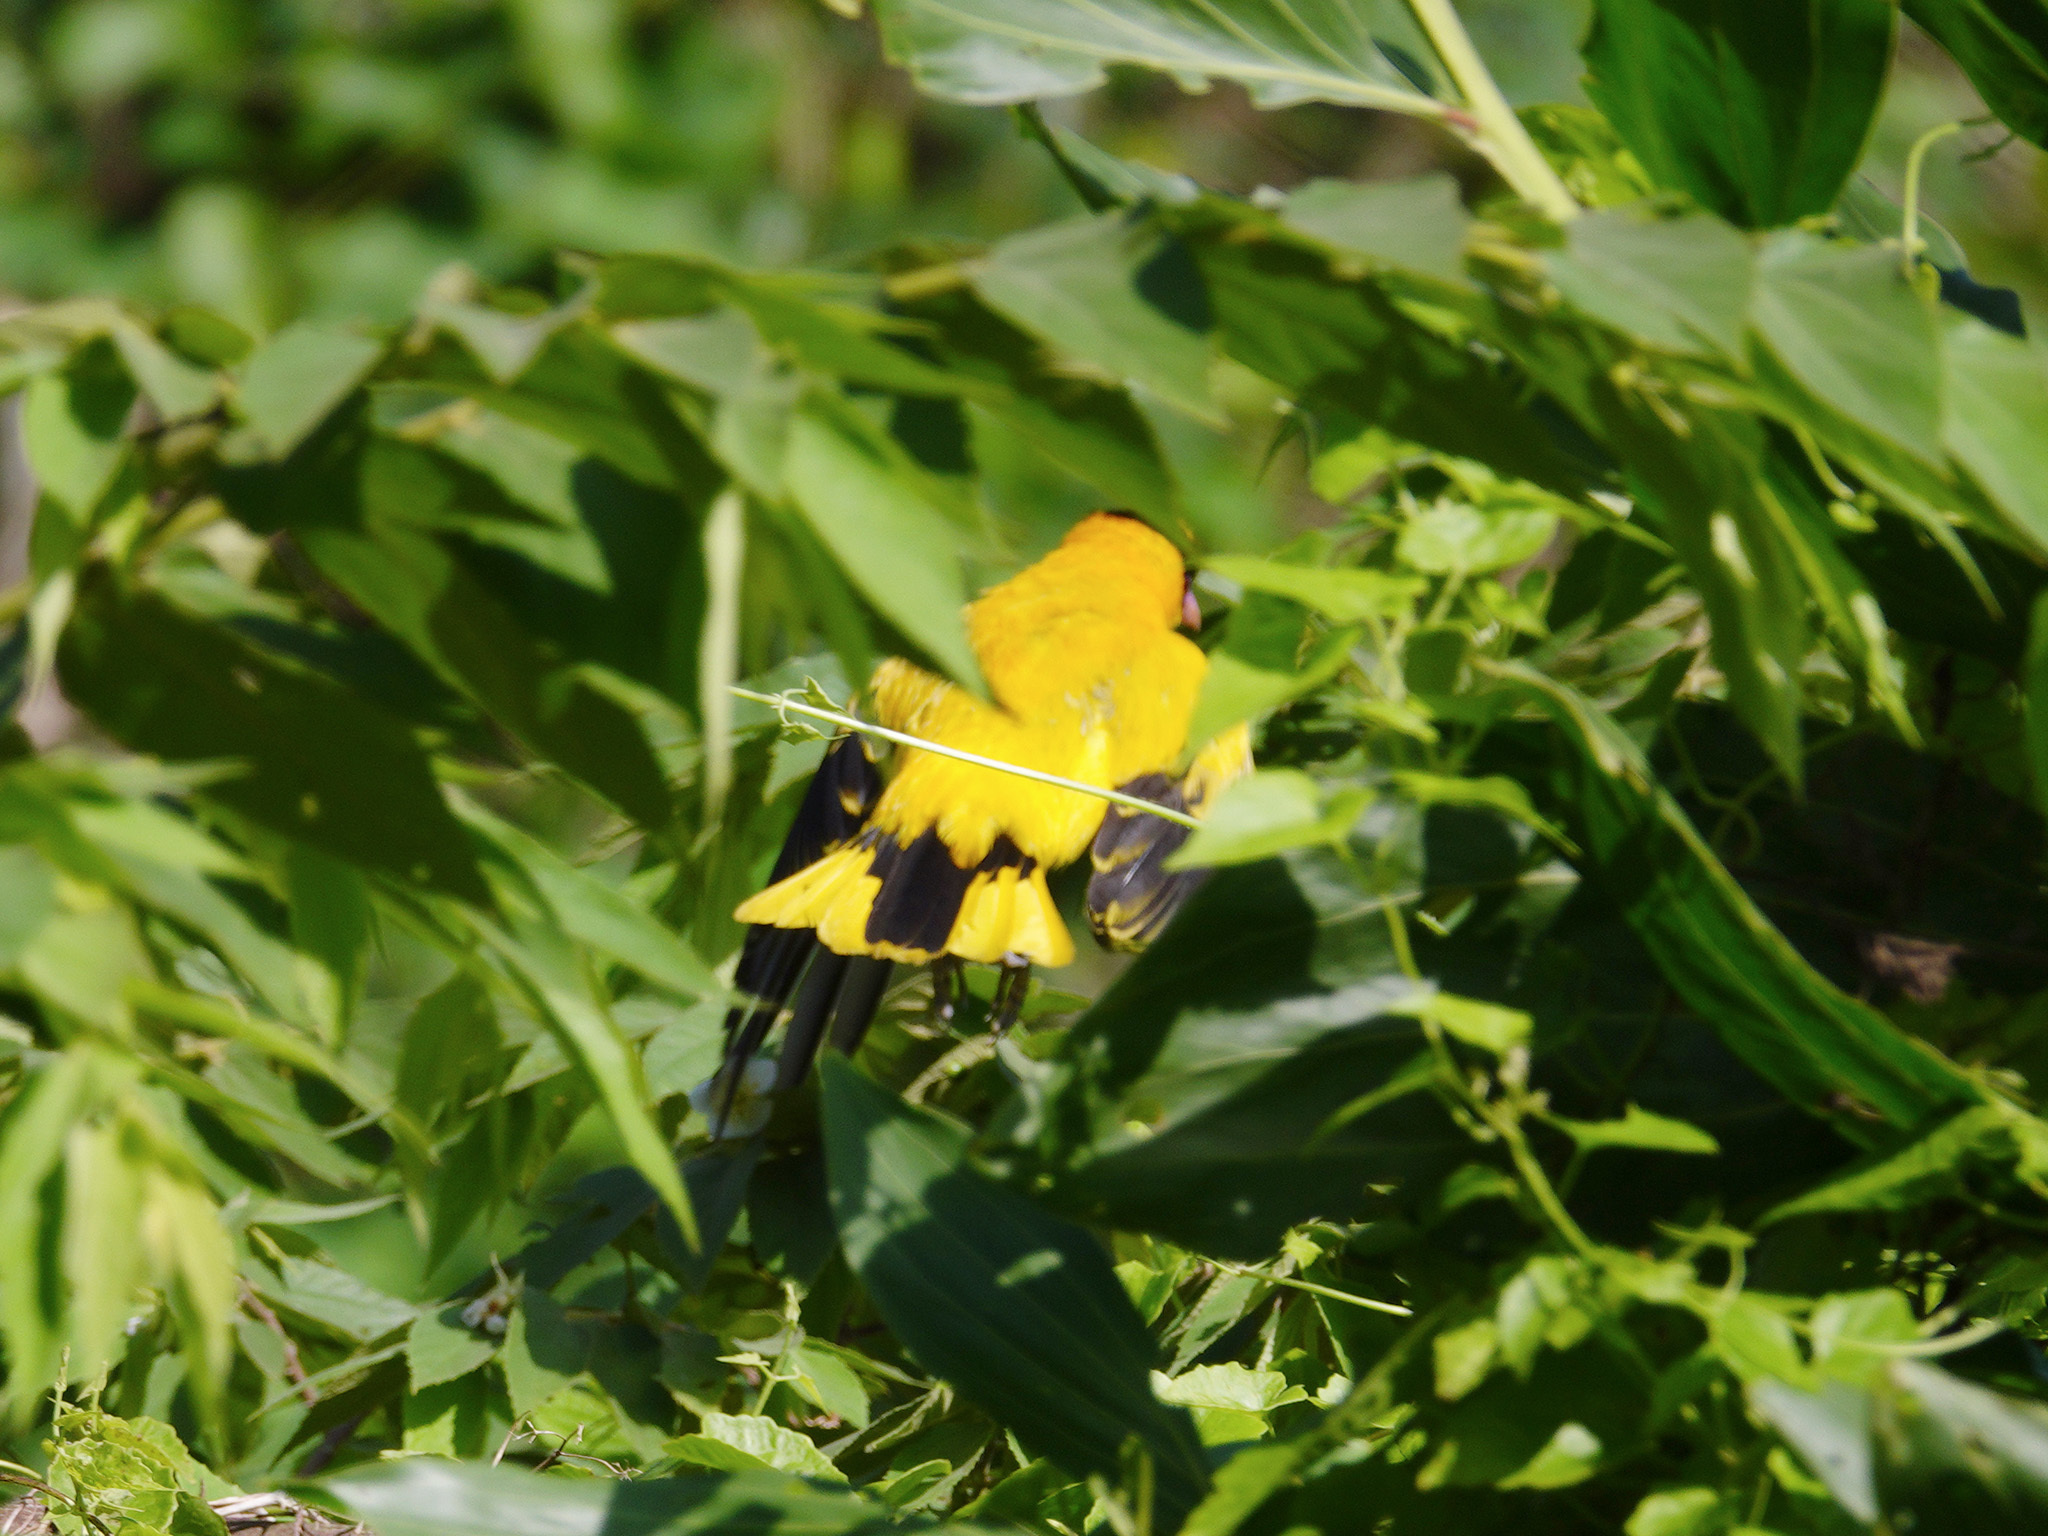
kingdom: Animalia
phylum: Chordata
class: Aves
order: Passeriformes
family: Oriolidae
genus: Oriolus
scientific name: Oriolus chinensis
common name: Black-naped oriole
